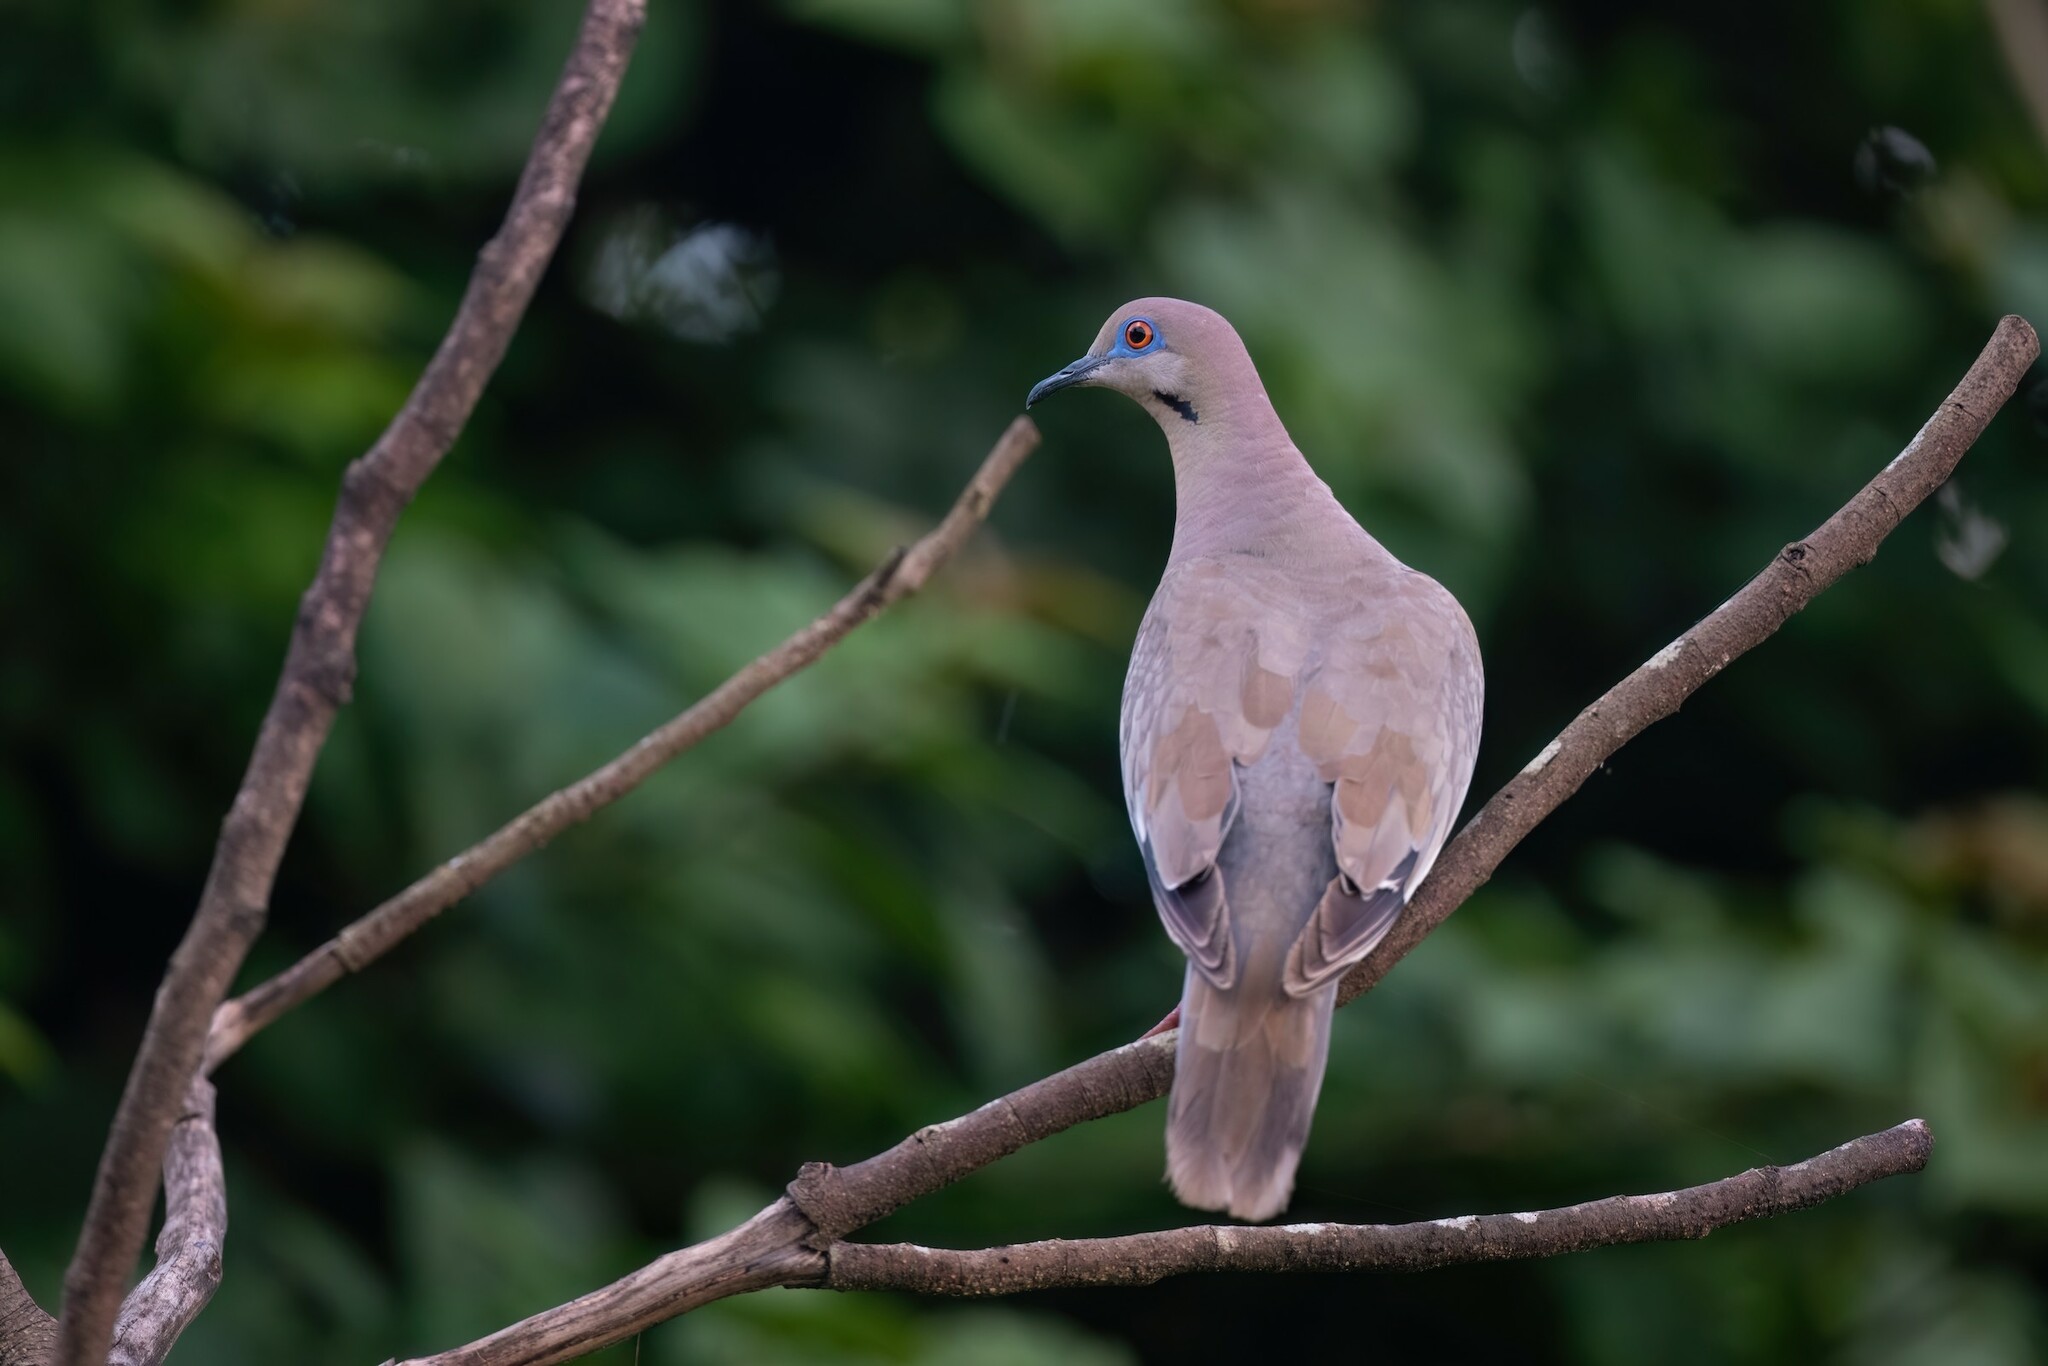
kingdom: Animalia
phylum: Chordata
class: Aves
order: Columbiformes
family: Columbidae
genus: Zenaida
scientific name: Zenaida asiatica
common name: White-winged dove
